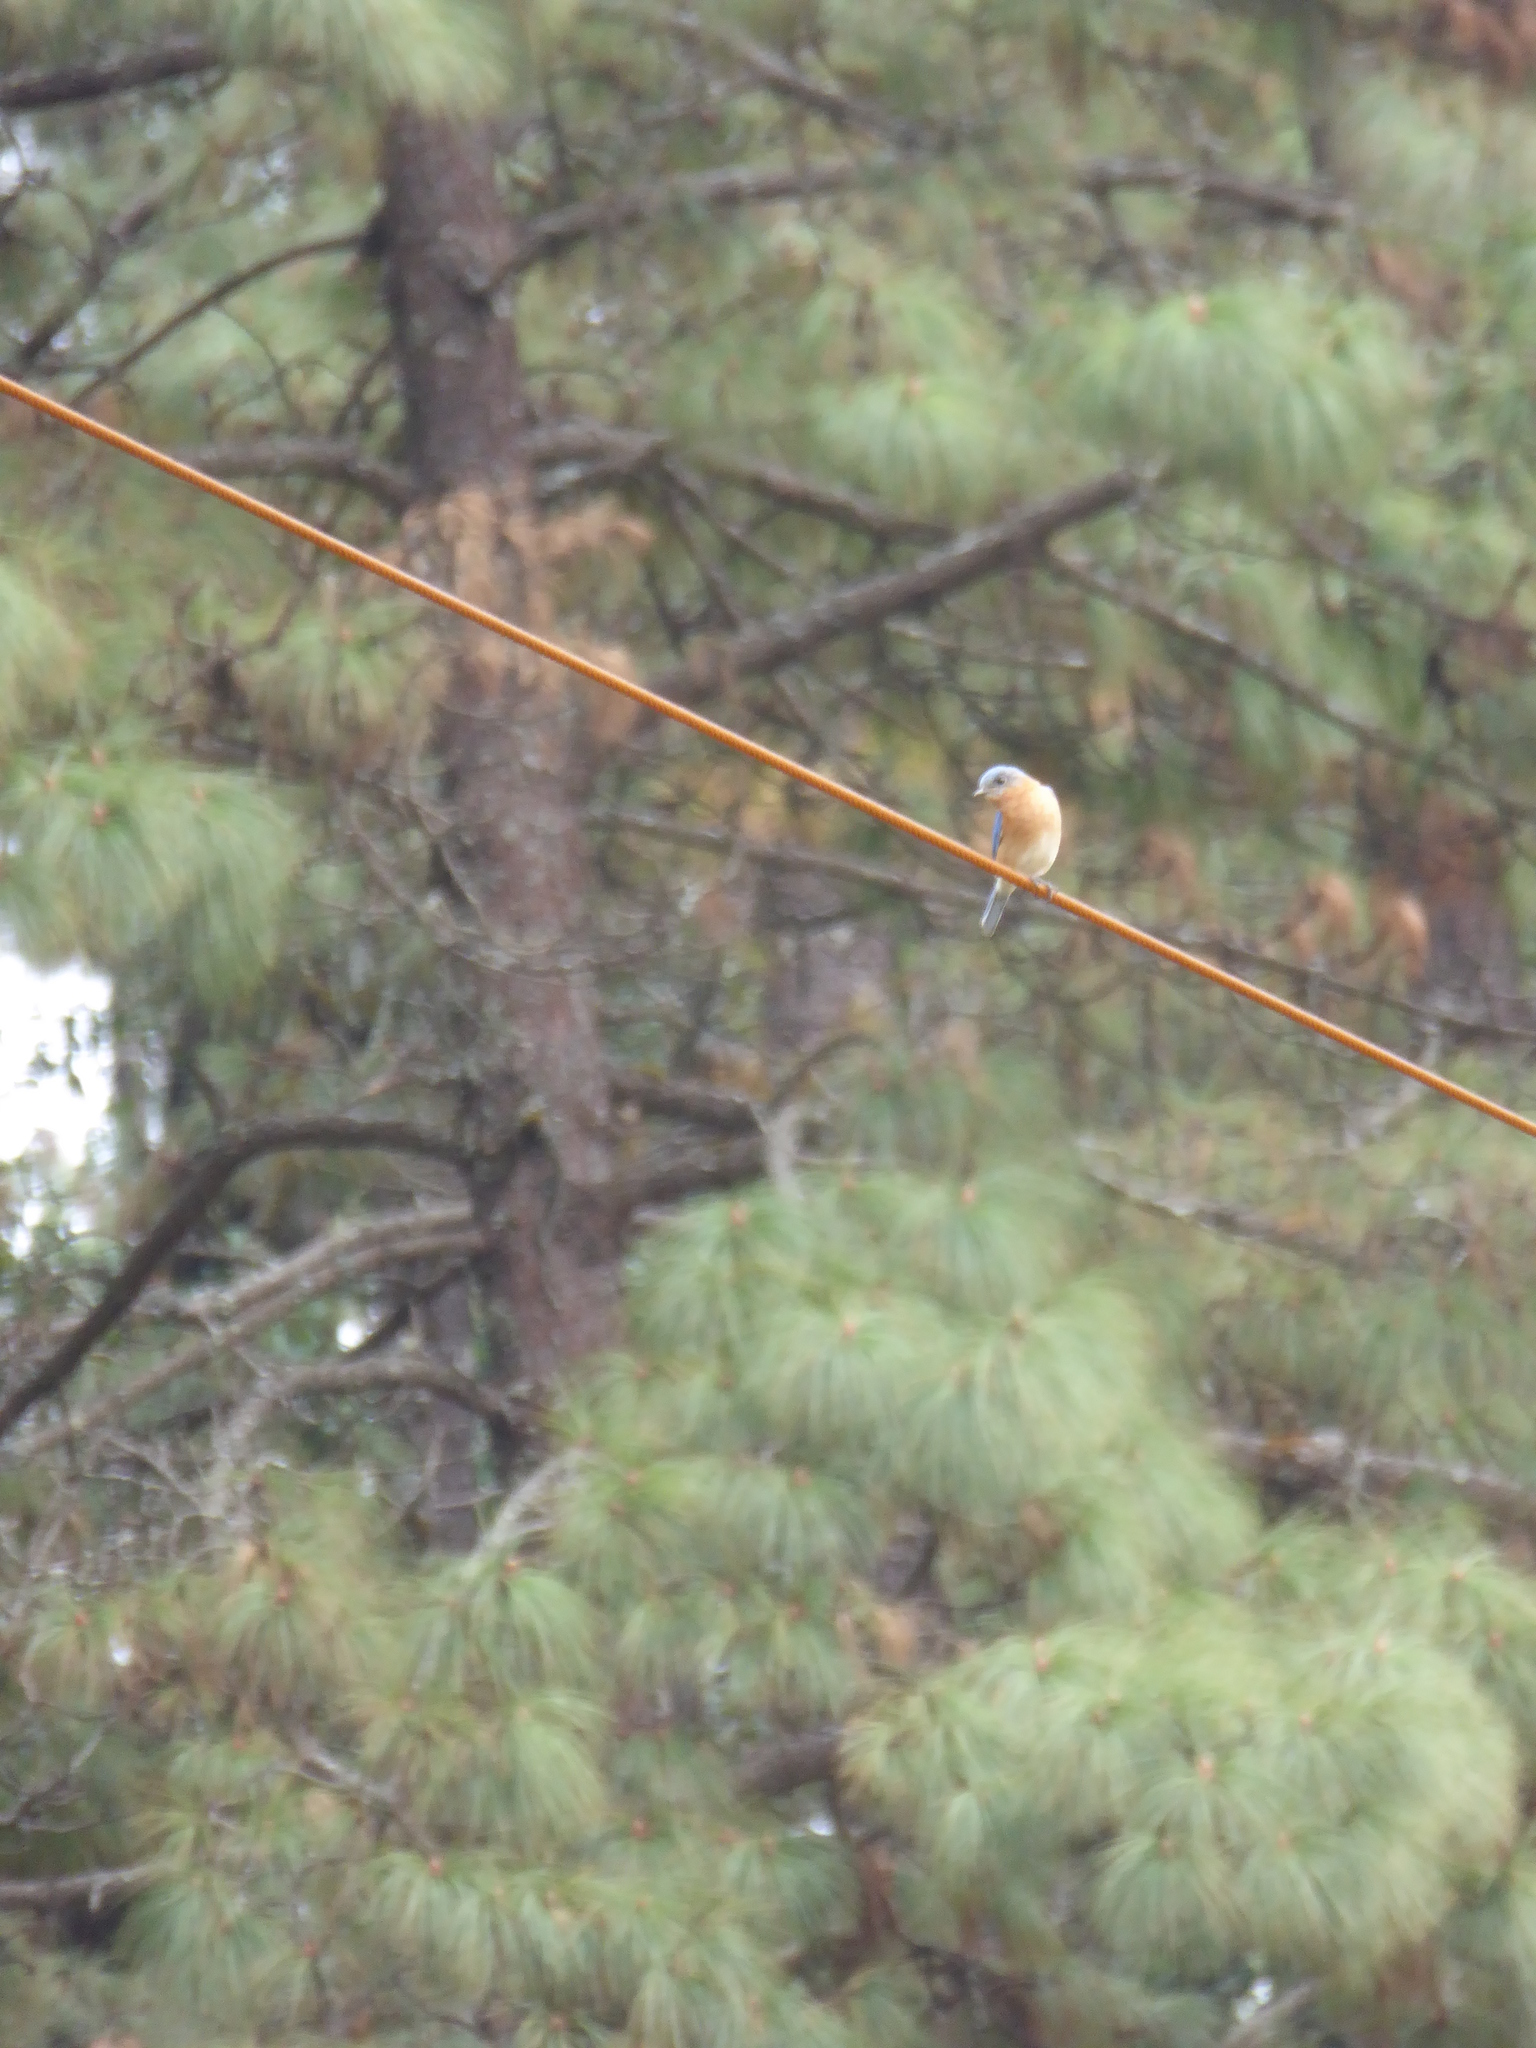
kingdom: Animalia
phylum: Chordata
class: Aves
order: Passeriformes
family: Turdidae
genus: Sialia
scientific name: Sialia sialis
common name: Eastern bluebird
